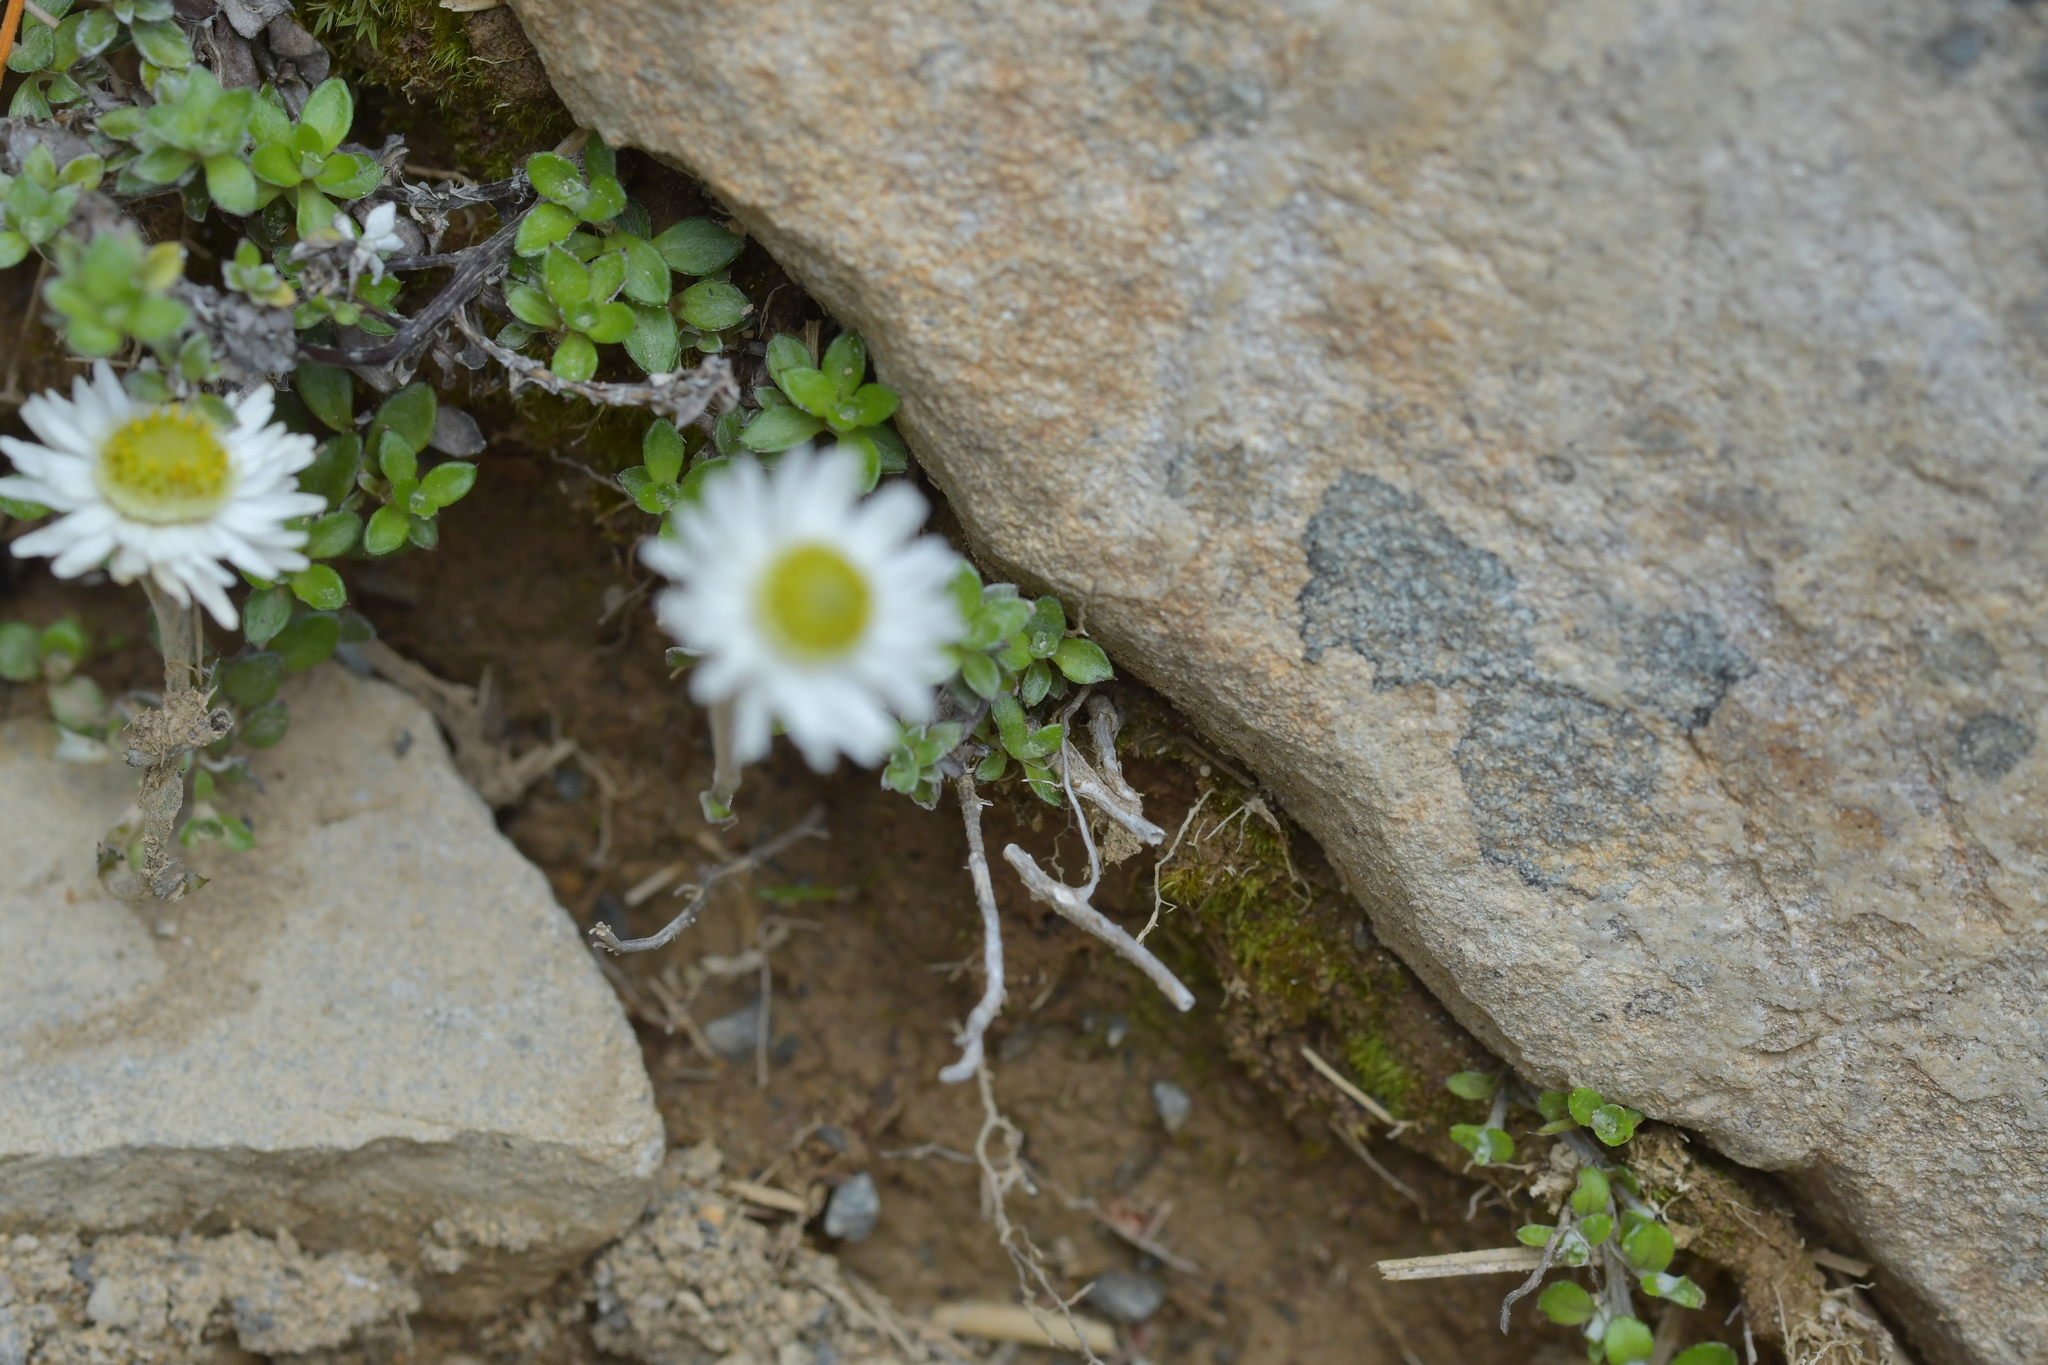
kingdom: Plantae
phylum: Tracheophyta
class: Magnoliopsida
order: Asterales
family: Asteraceae
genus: Anaphalioides
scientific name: Anaphalioides bellidioides
